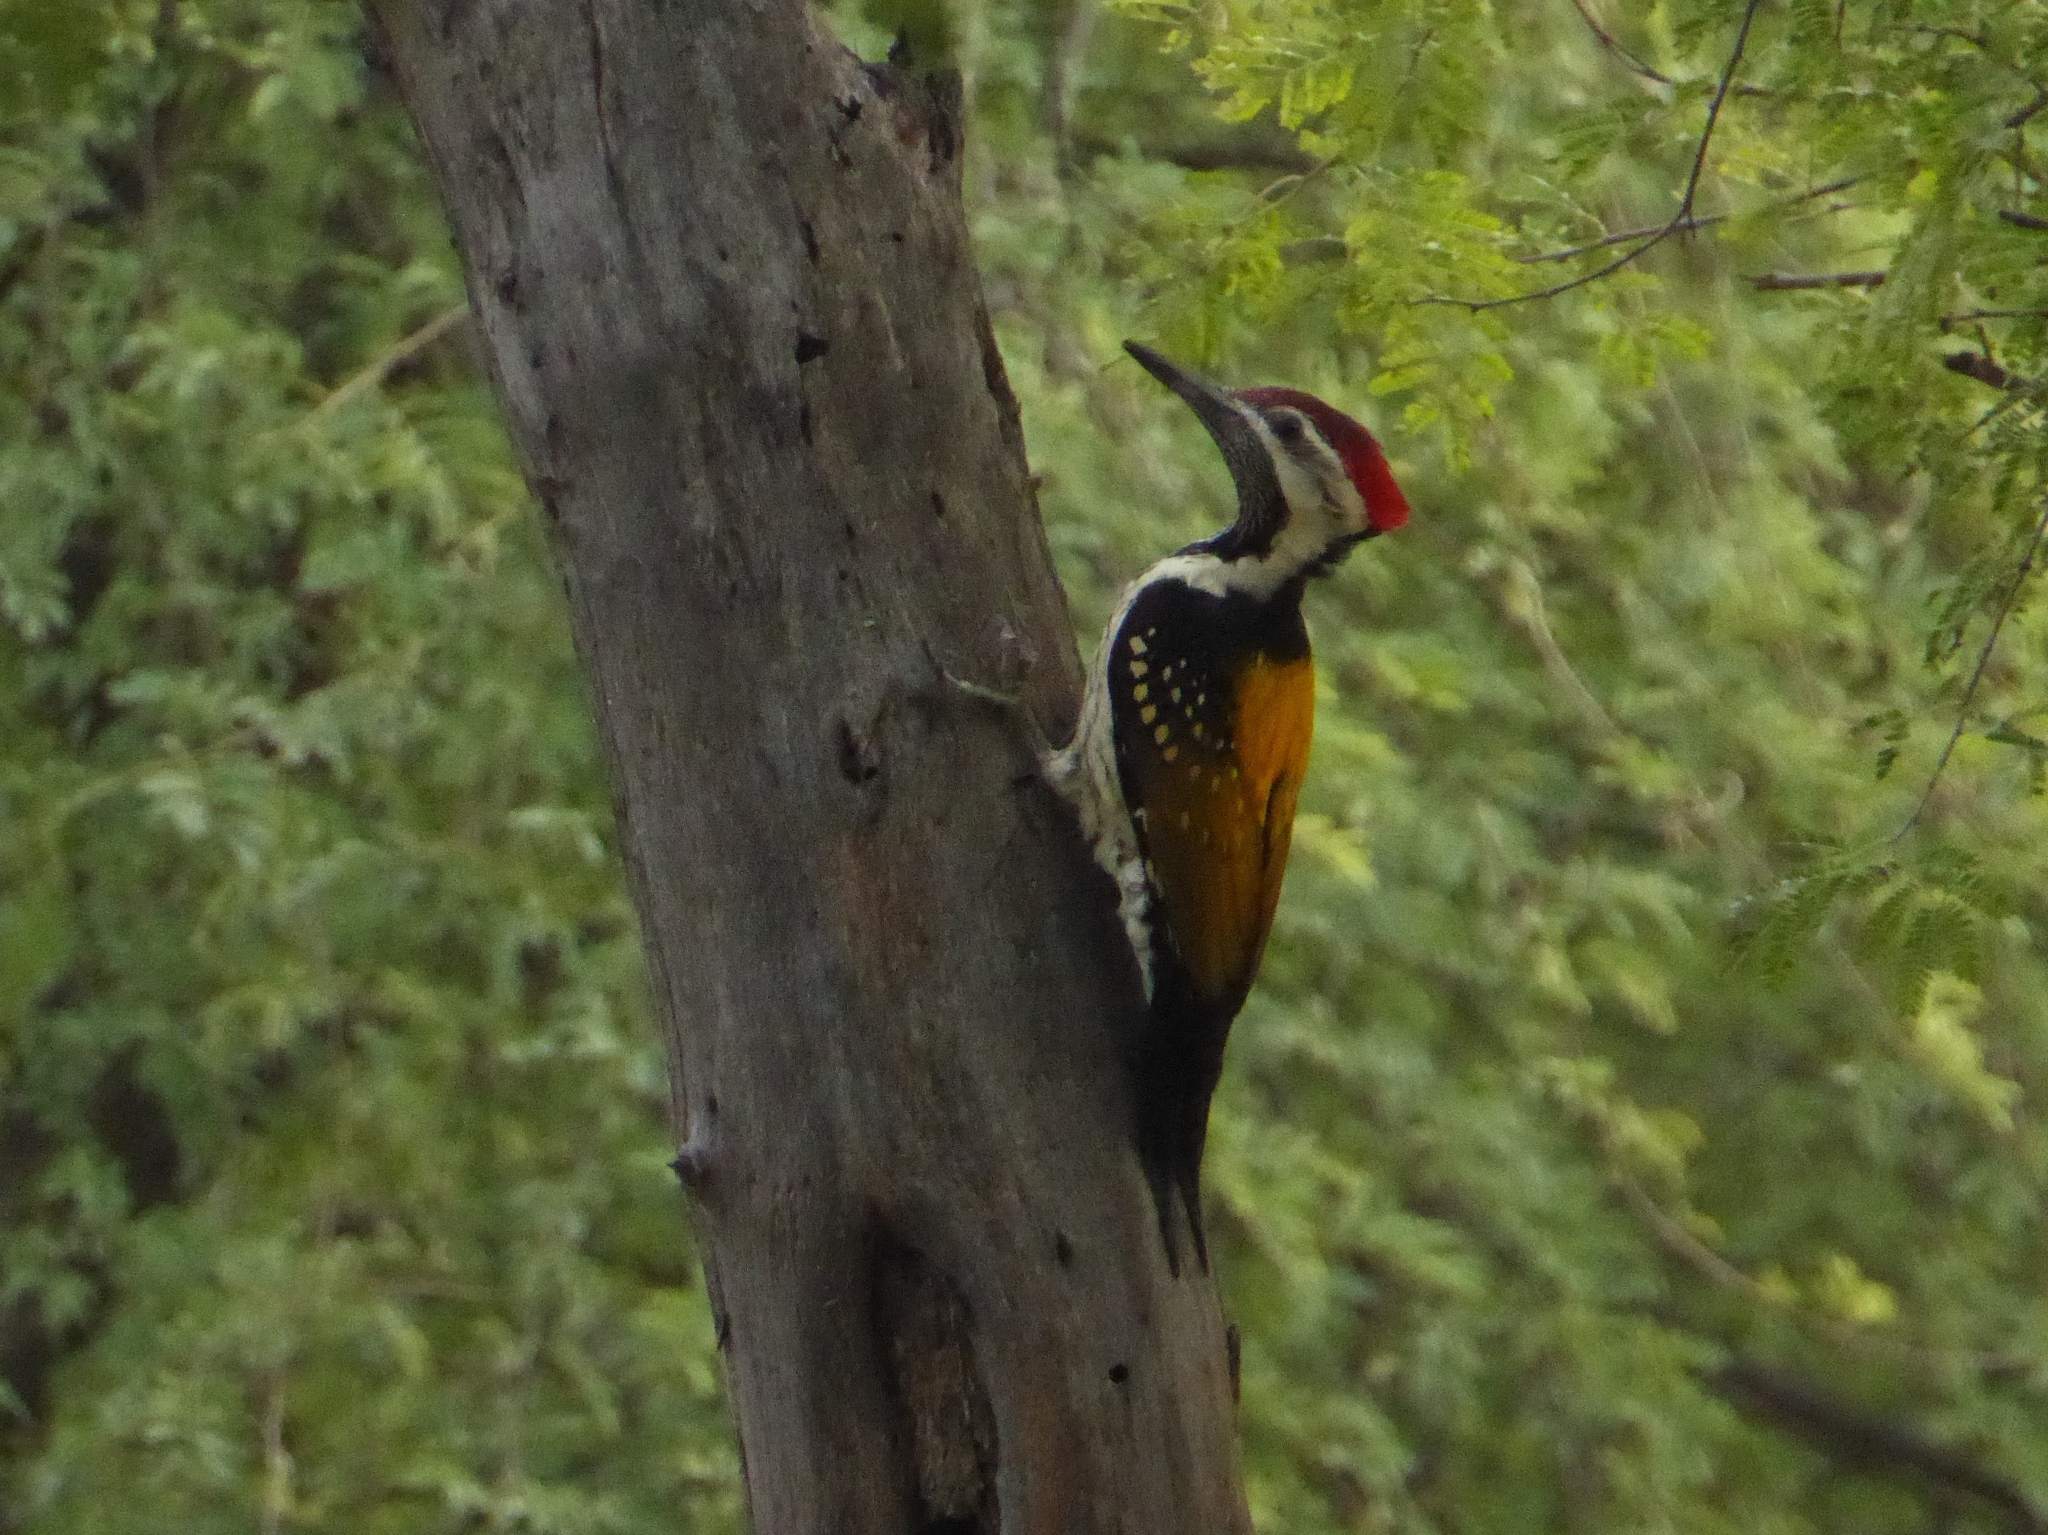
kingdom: Animalia
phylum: Chordata
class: Aves
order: Piciformes
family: Picidae
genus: Dinopium
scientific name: Dinopium benghalense
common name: Black-rumped flameback
